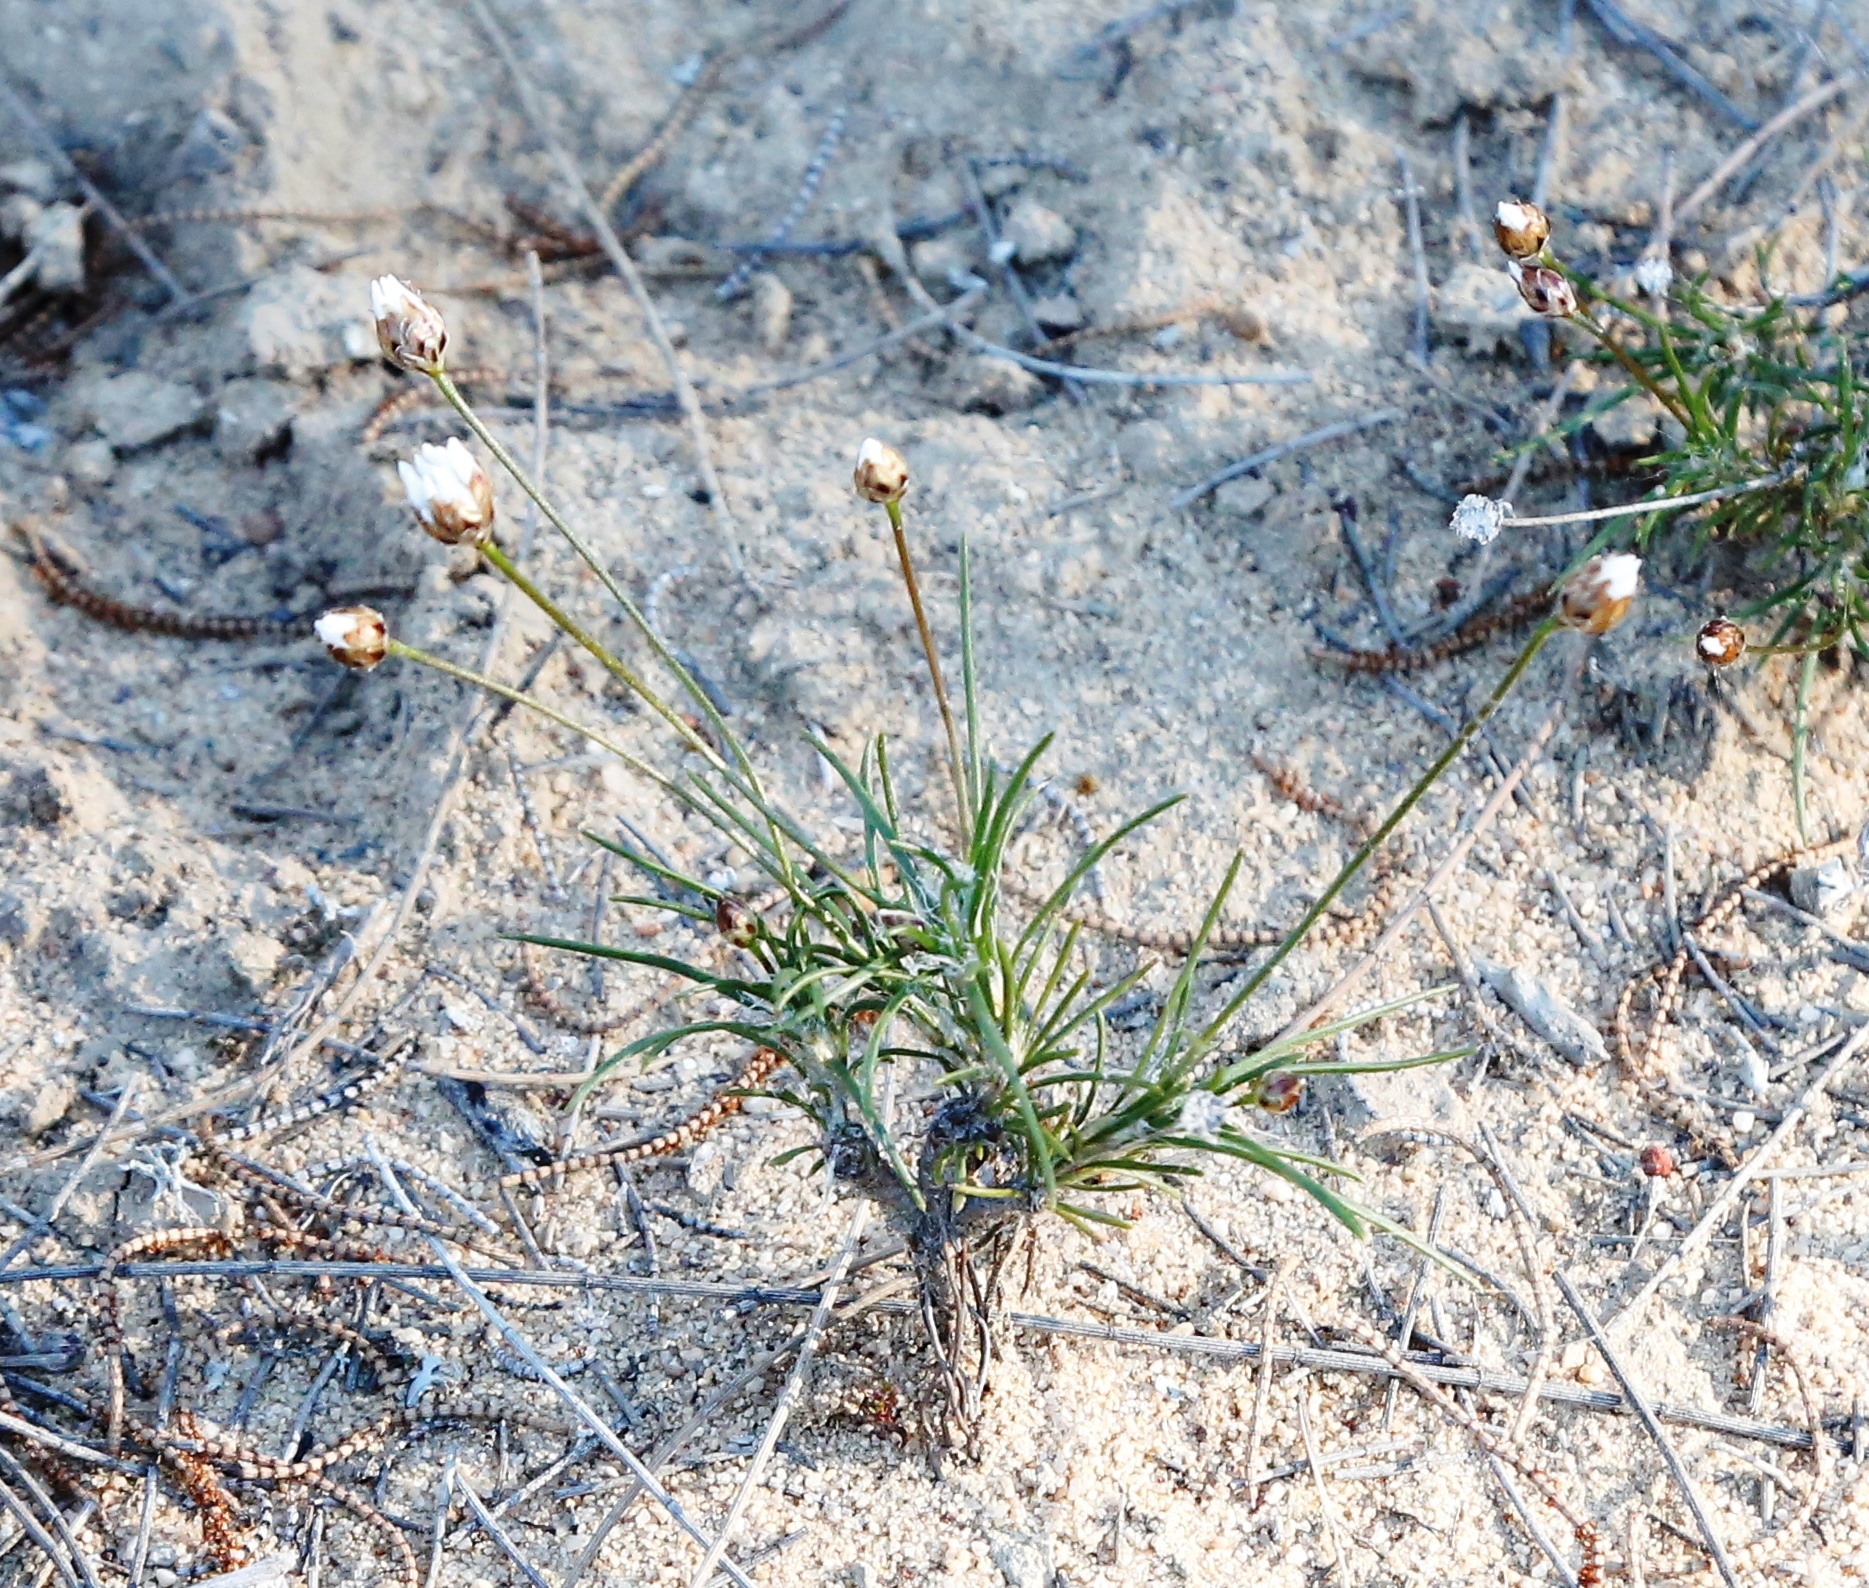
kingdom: Plantae
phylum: Tracheophyta
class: Liliopsida
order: Asparagales
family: Asparagaceae
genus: Laxmannia
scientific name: Laxmannia grandiflora
